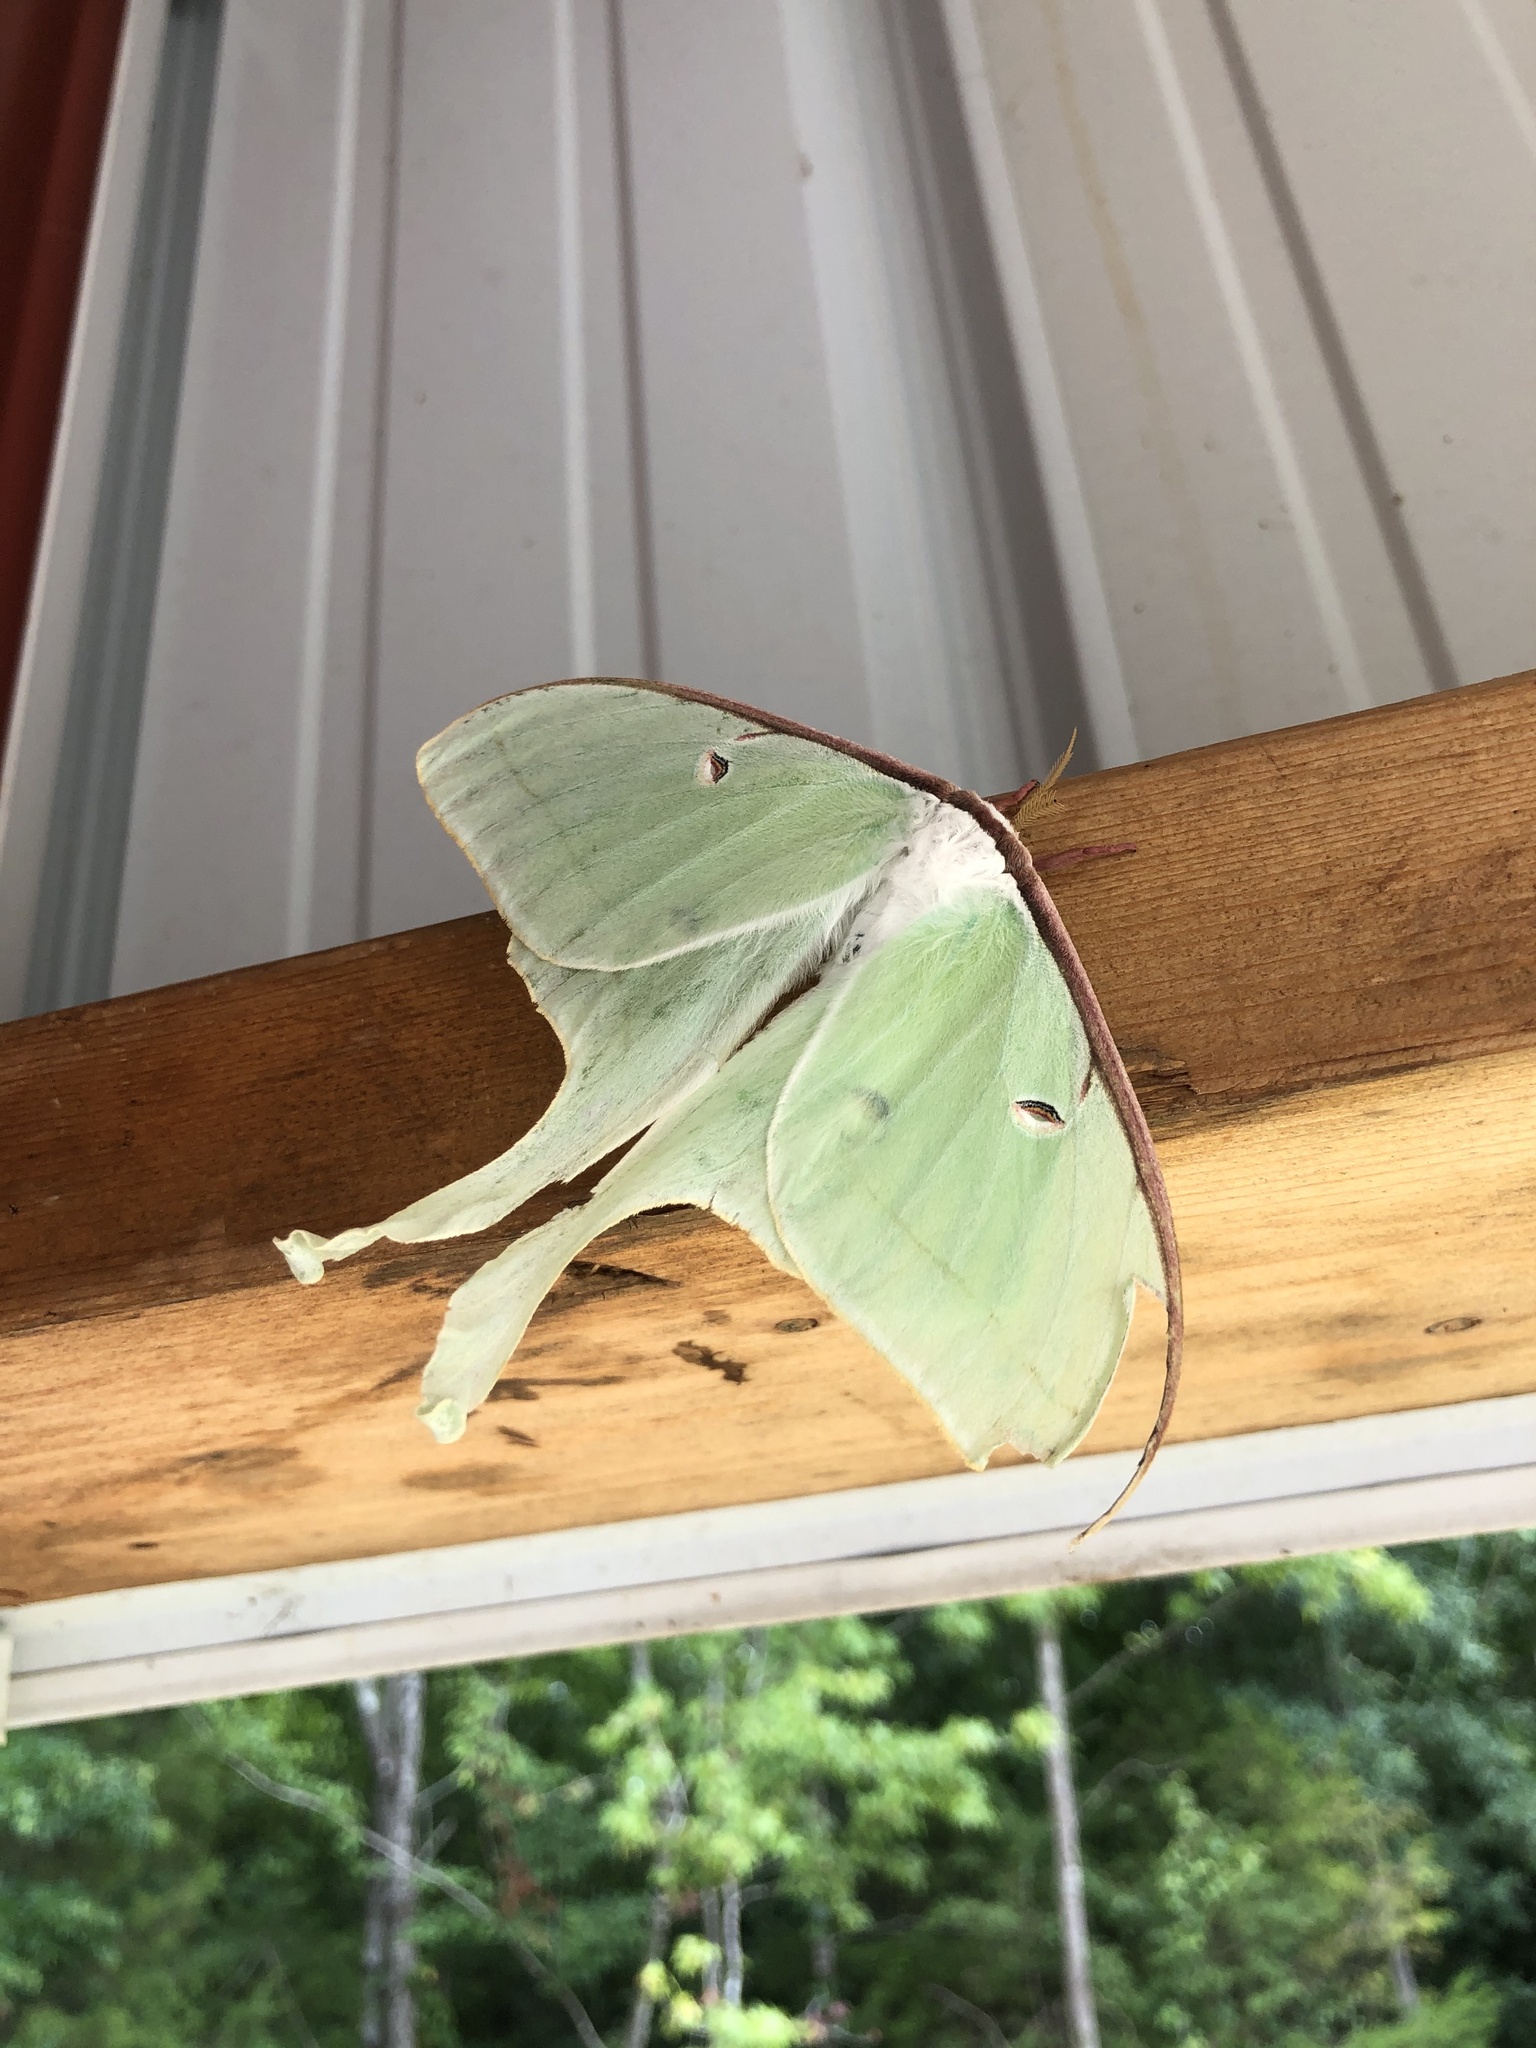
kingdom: Animalia
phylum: Arthropoda
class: Insecta
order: Lepidoptera
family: Saturniidae
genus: Actias
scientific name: Actias luna
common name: Luna moth
